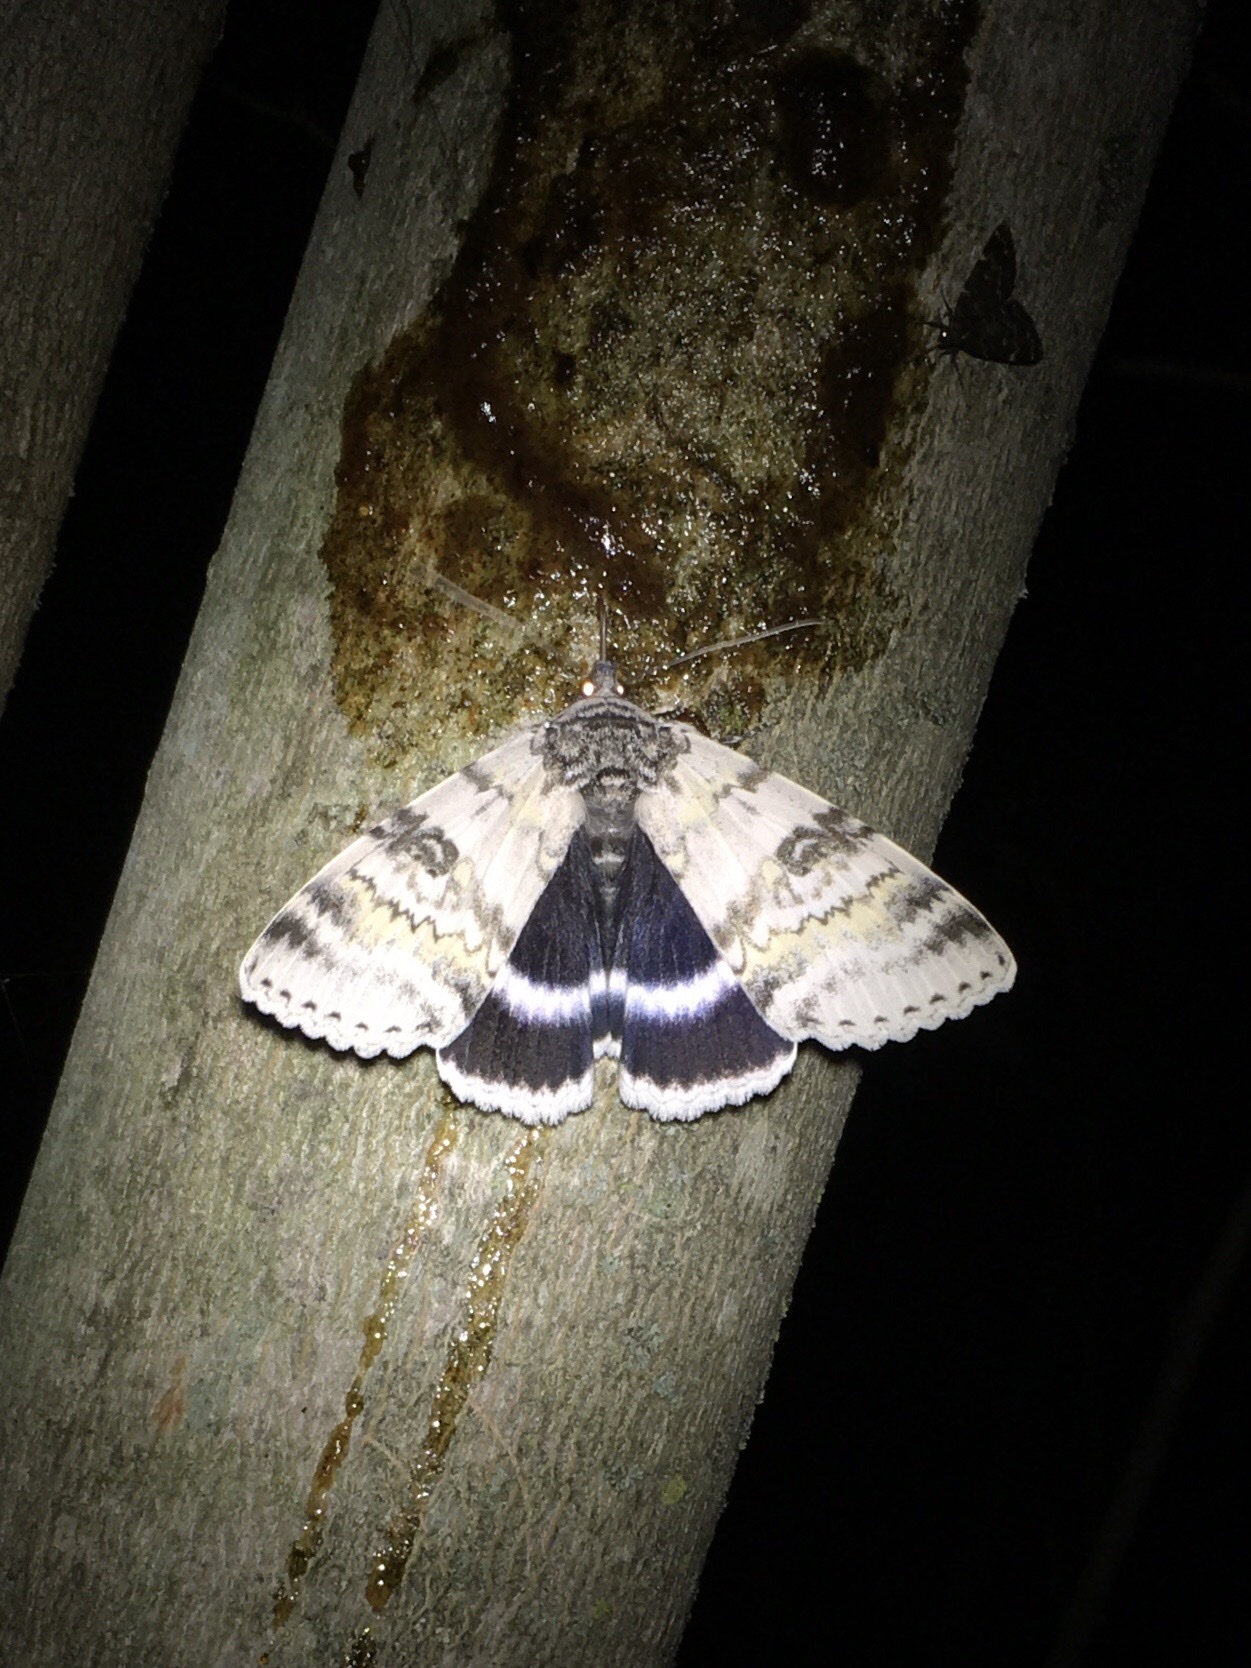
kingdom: Animalia
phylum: Arthropoda
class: Insecta
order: Lepidoptera
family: Erebidae
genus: Catocala
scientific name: Catocala relicta
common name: White underwing
